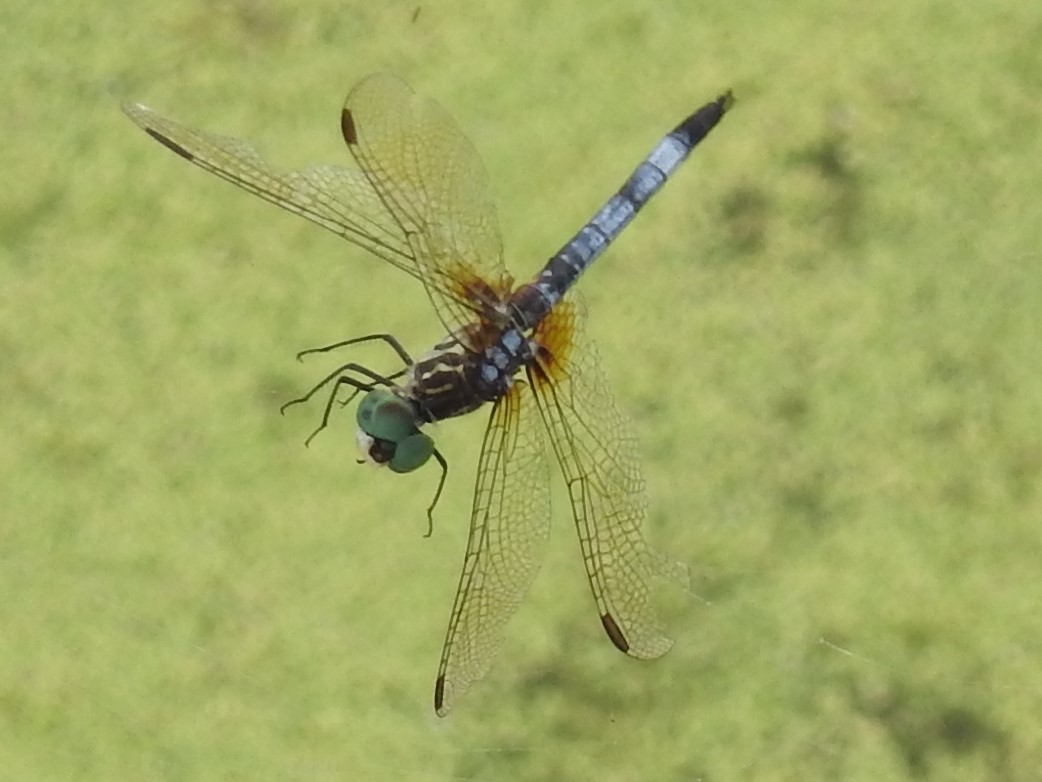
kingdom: Animalia
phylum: Arthropoda
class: Insecta
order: Odonata
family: Libellulidae
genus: Pachydiplax
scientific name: Pachydiplax longipennis
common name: Blue dasher
